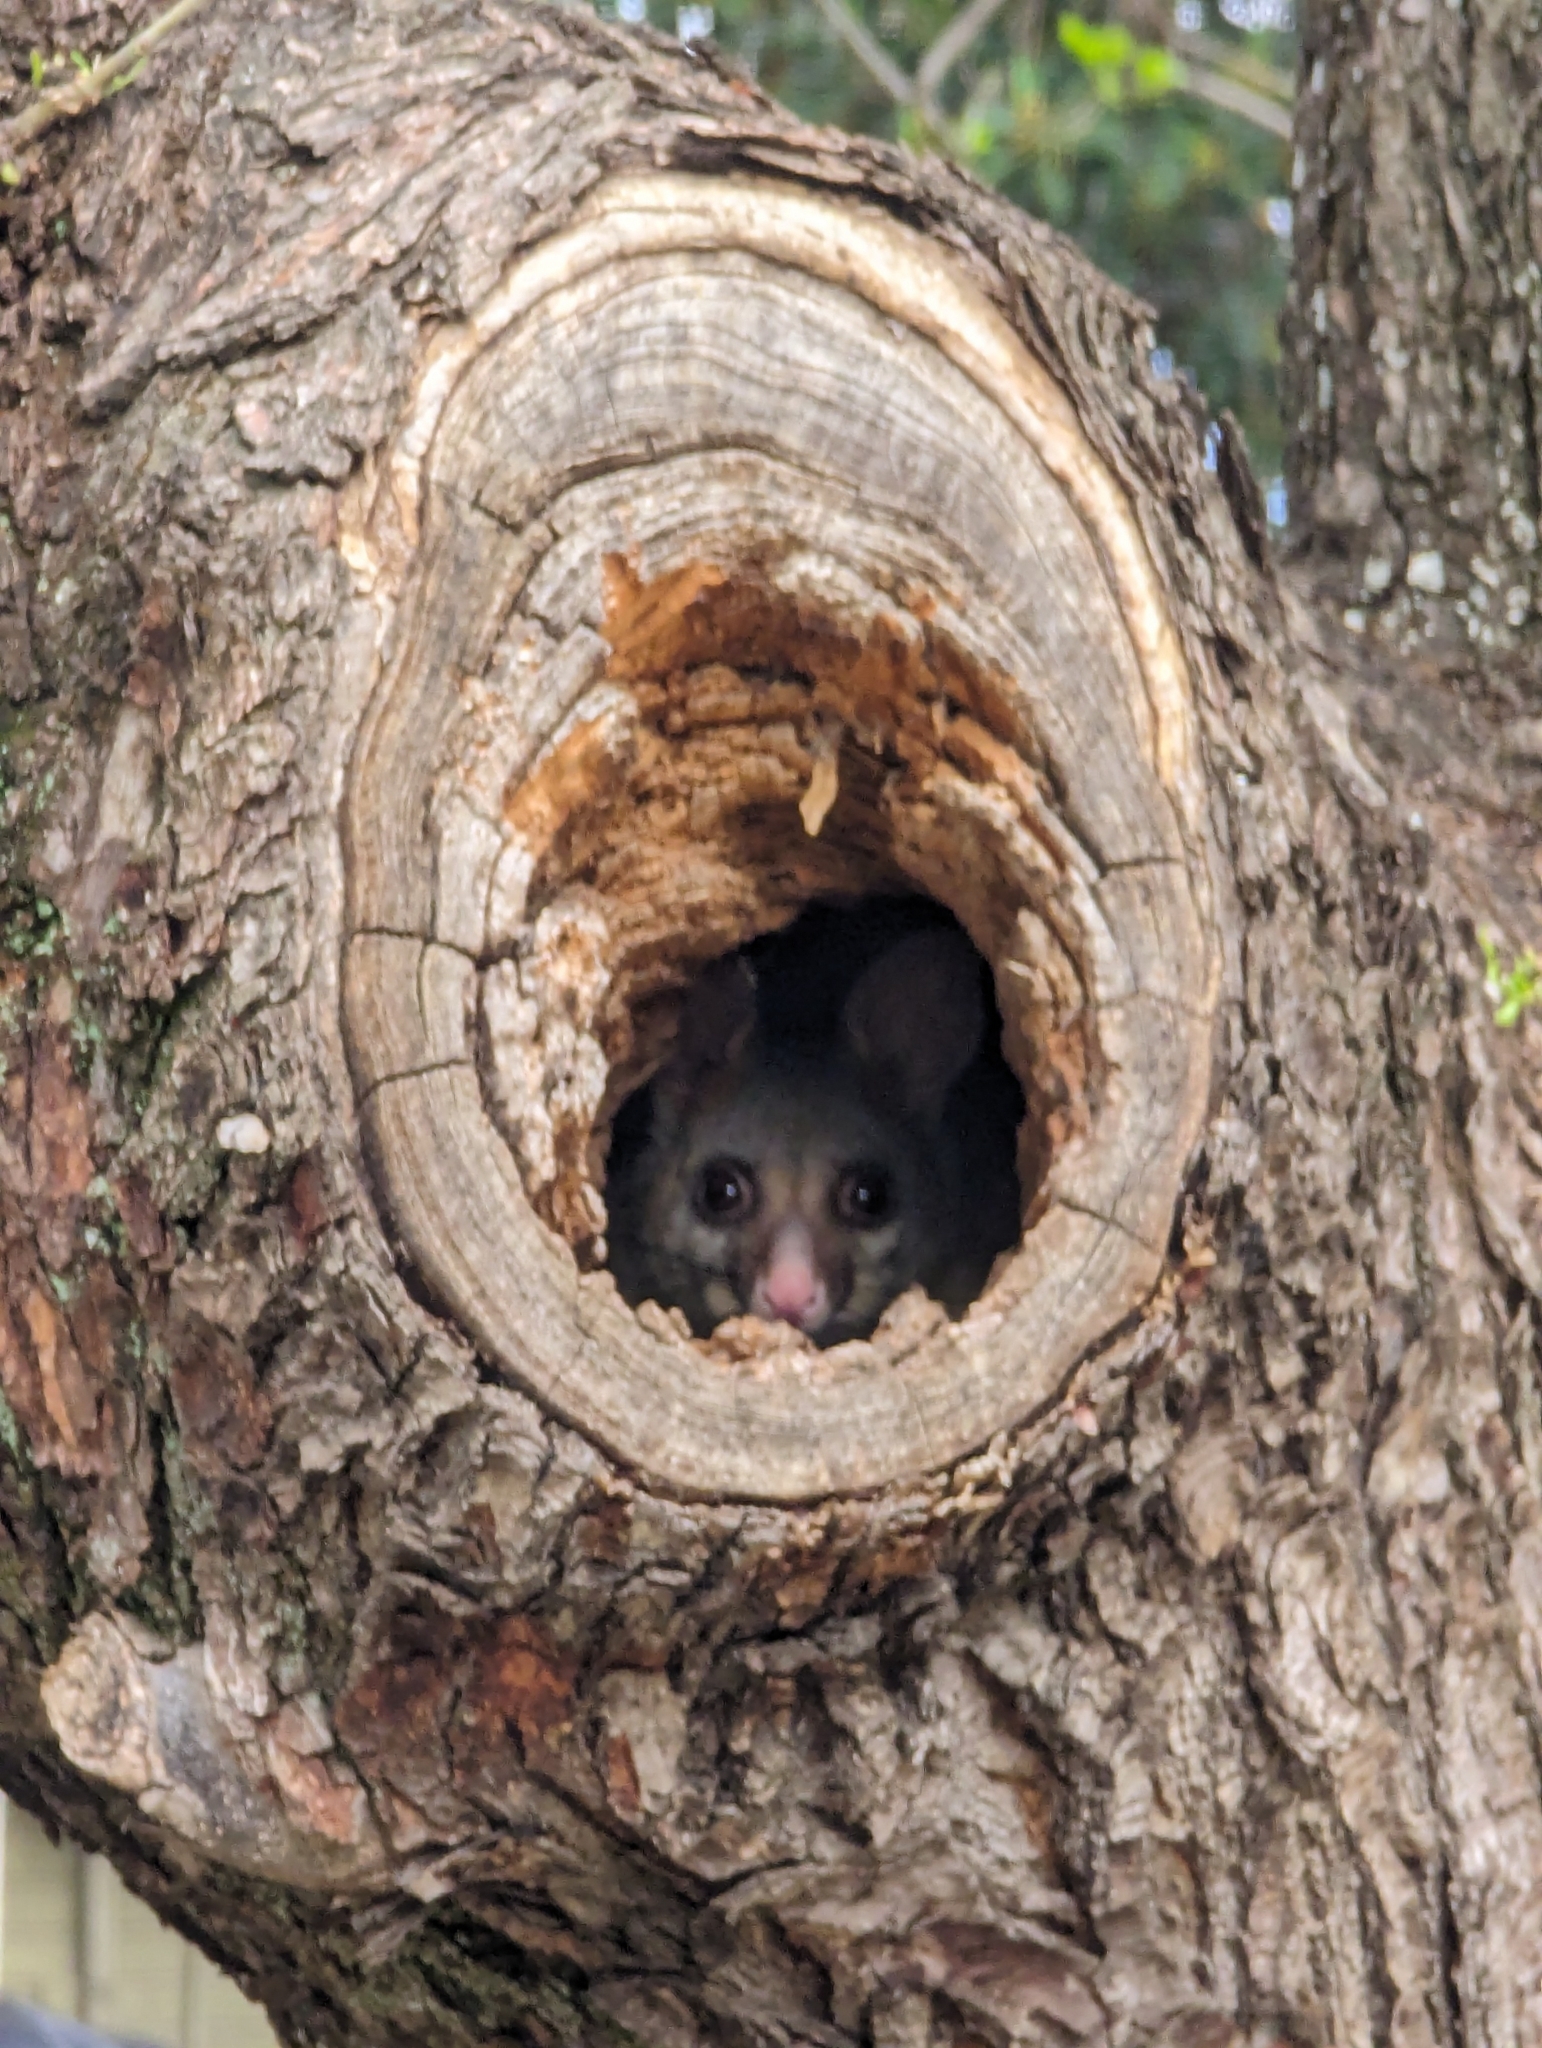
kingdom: Animalia
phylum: Chordata
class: Mammalia
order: Diprotodontia
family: Phalangeridae
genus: Trichosurus
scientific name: Trichosurus vulpecula
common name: Common brushtail
